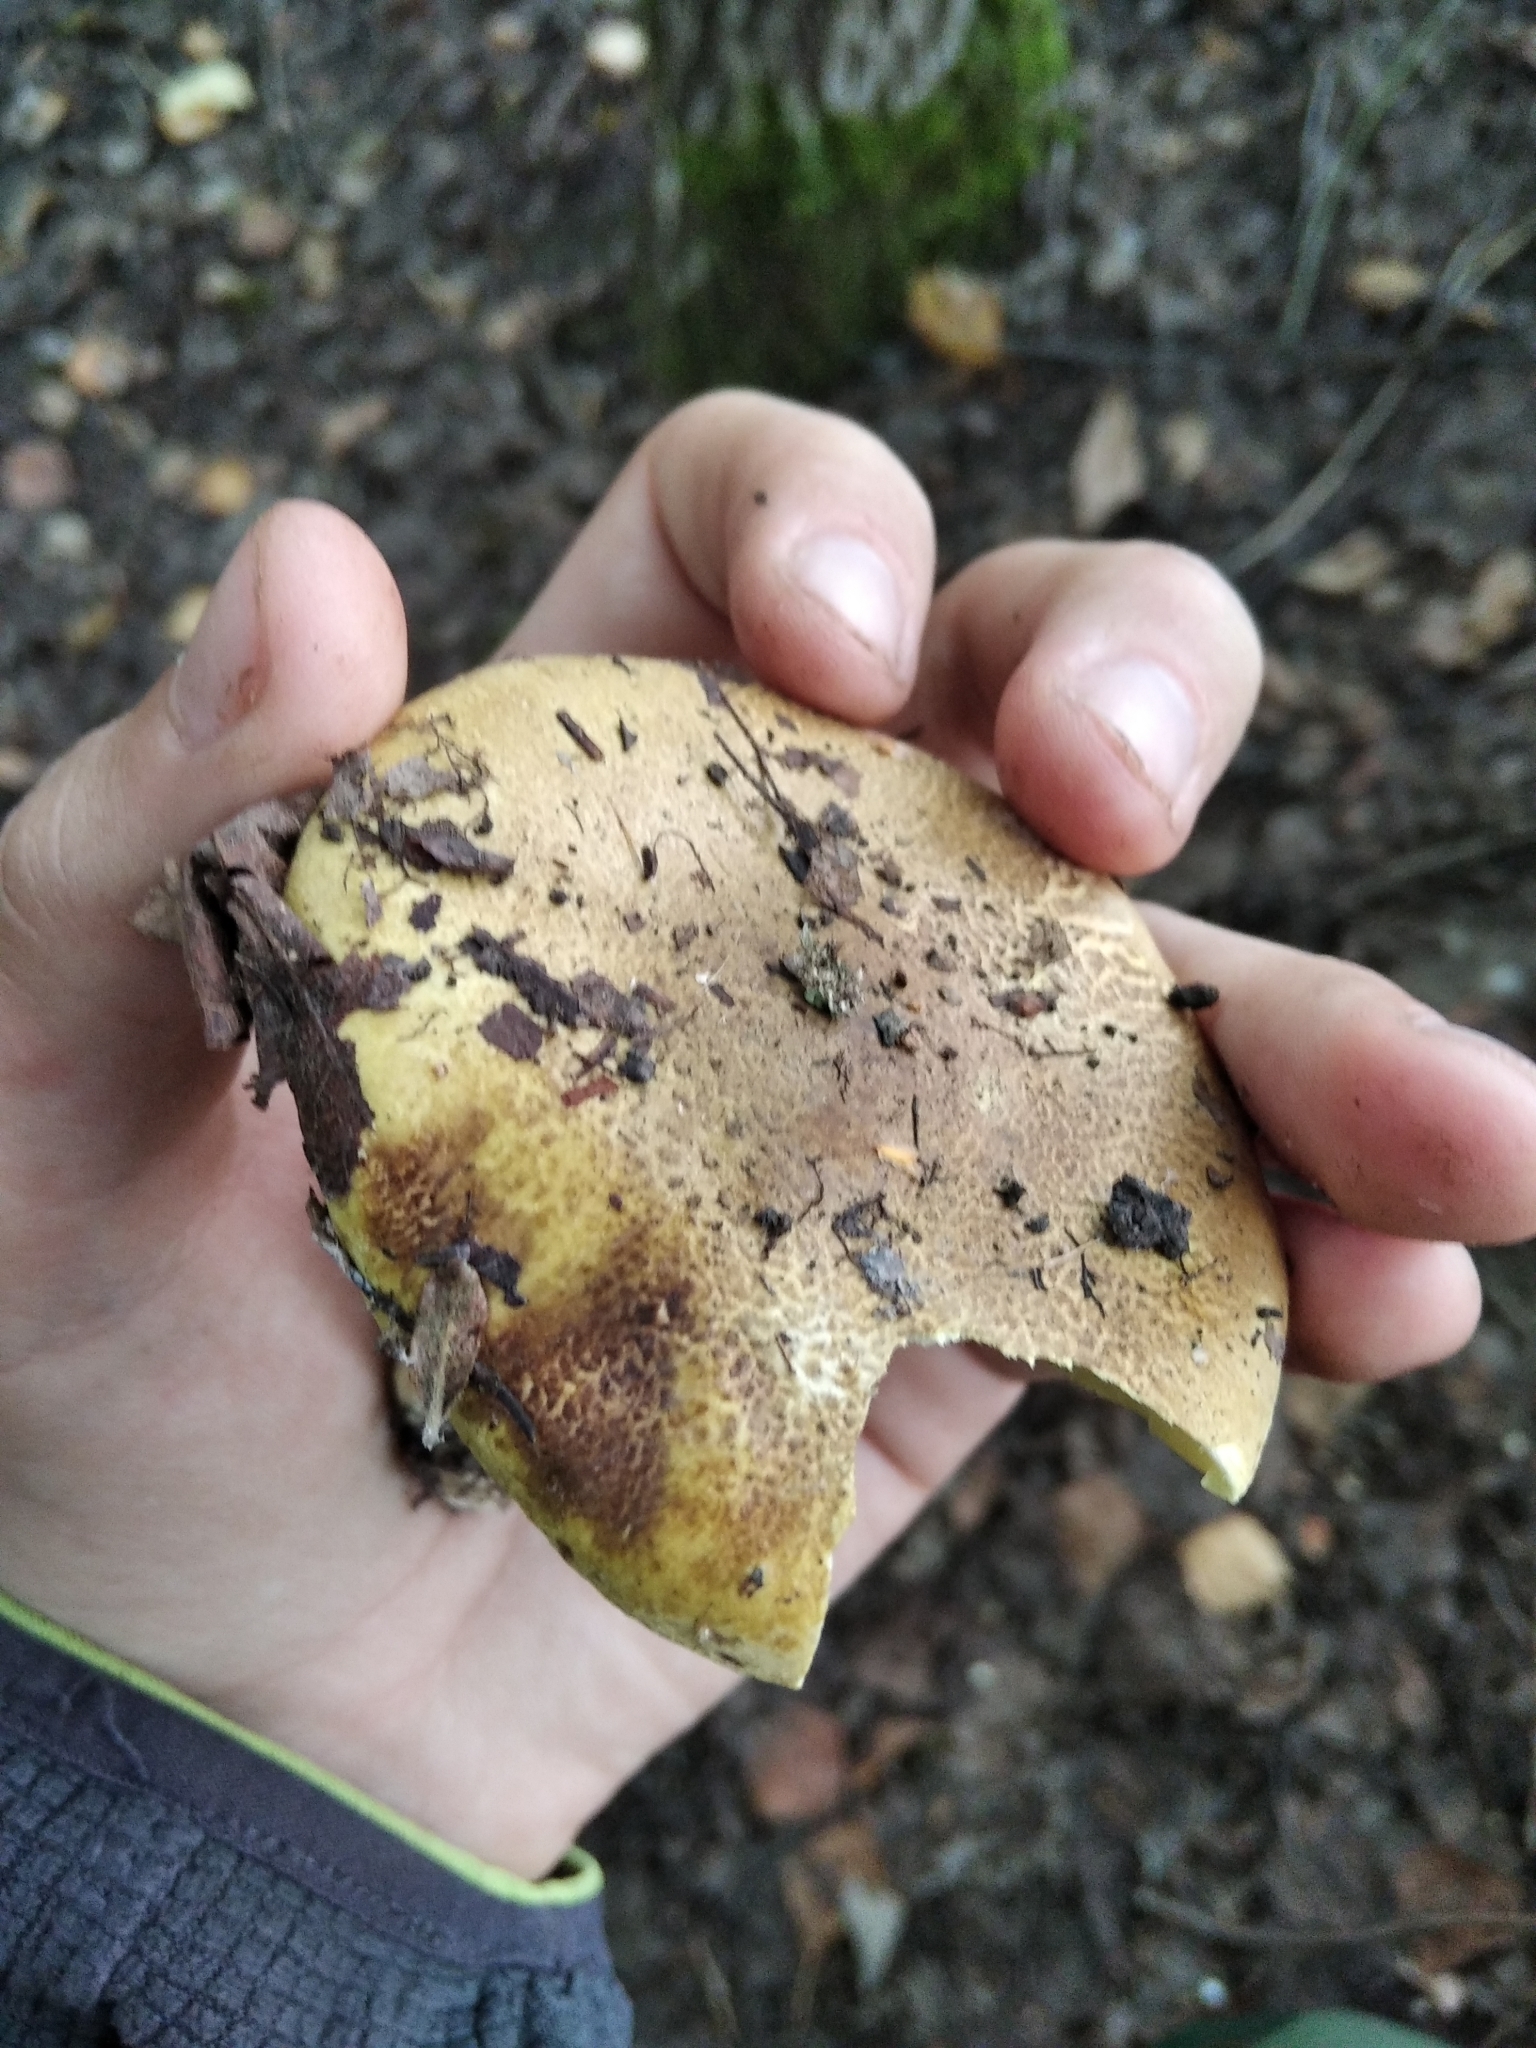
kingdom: Fungi
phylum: Basidiomycota
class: Agaricomycetes
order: Agaricales
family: Tricholomataceae
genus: Tricholoma
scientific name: Tricholoma equestre
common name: Yellow knight
